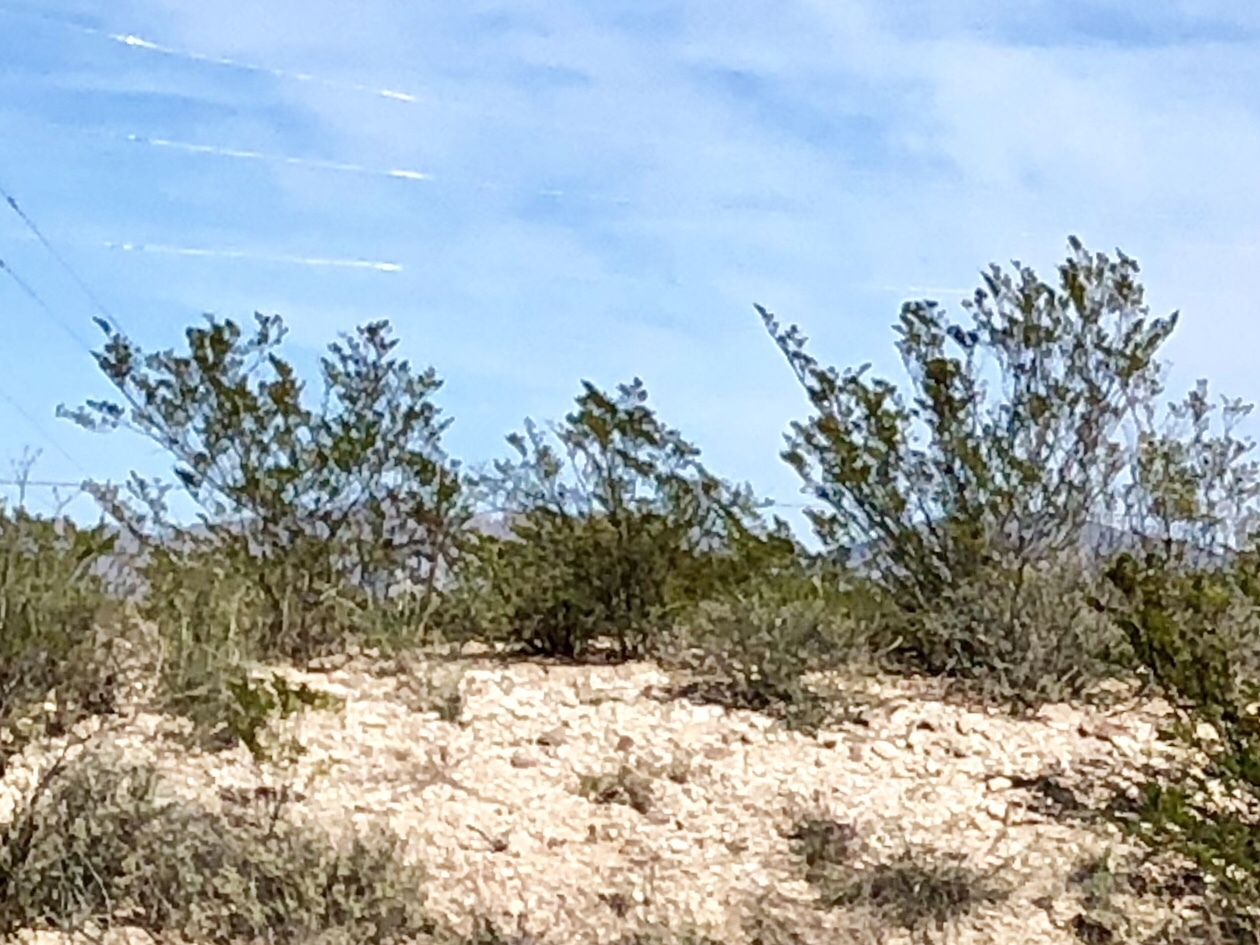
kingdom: Plantae
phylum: Tracheophyta
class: Magnoliopsida
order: Zygophyllales
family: Zygophyllaceae
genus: Larrea
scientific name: Larrea tridentata
